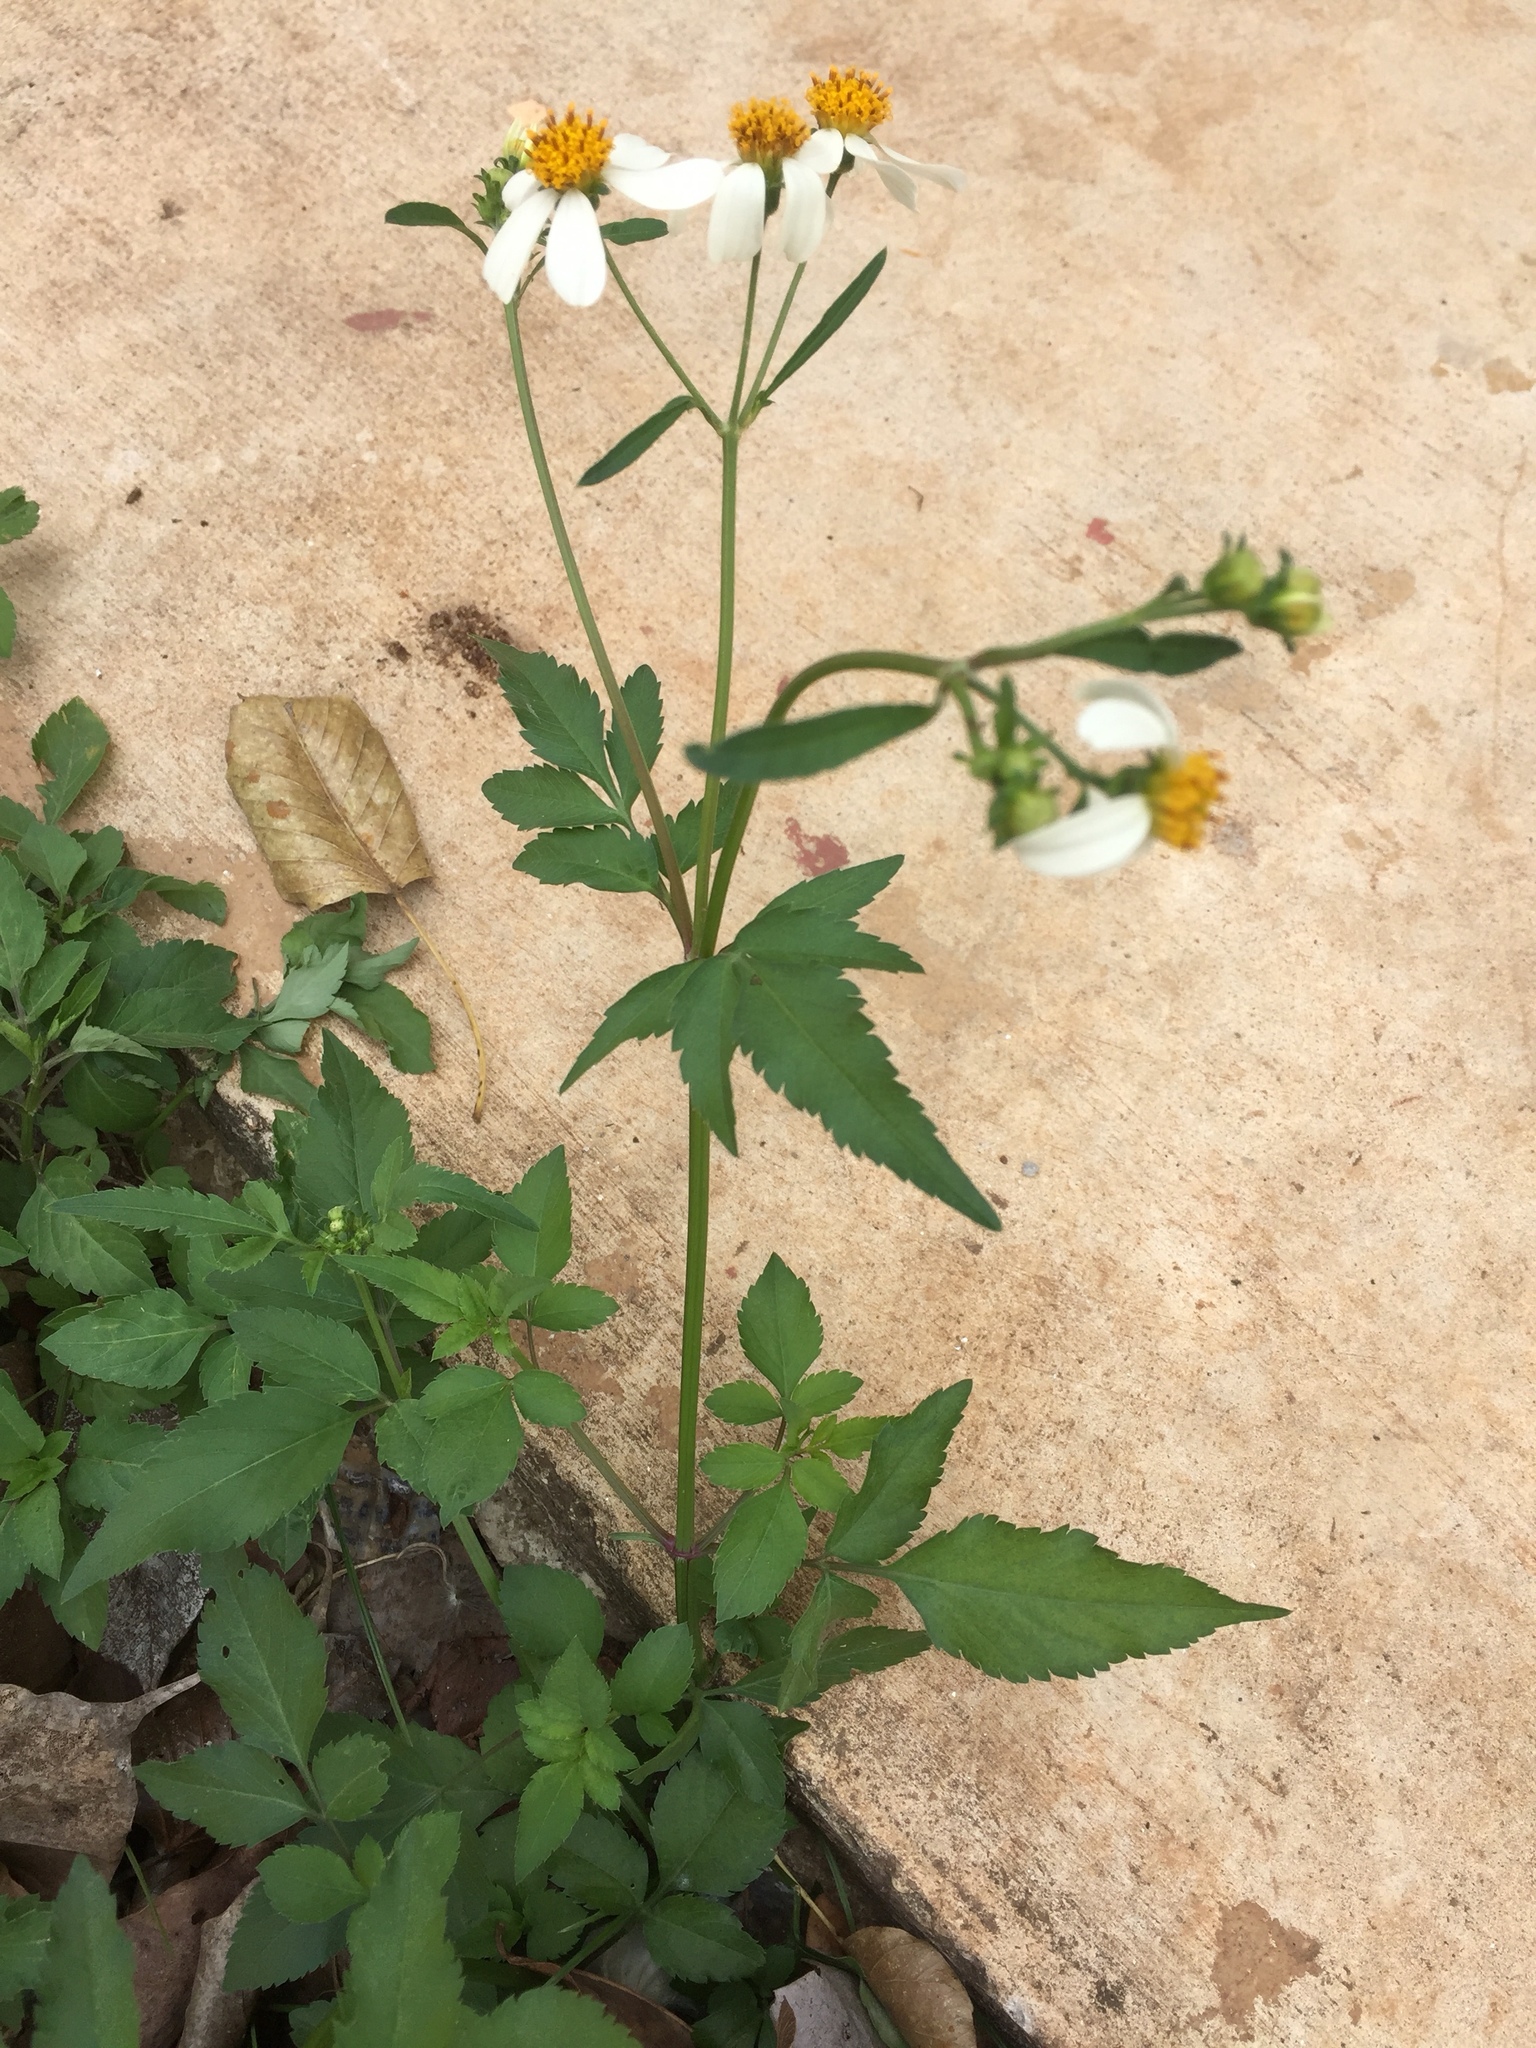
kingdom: Plantae
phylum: Tracheophyta
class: Magnoliopsida
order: Asterales
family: Asteraceae
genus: Bidens
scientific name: Bidens pilosa
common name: Black-jack
